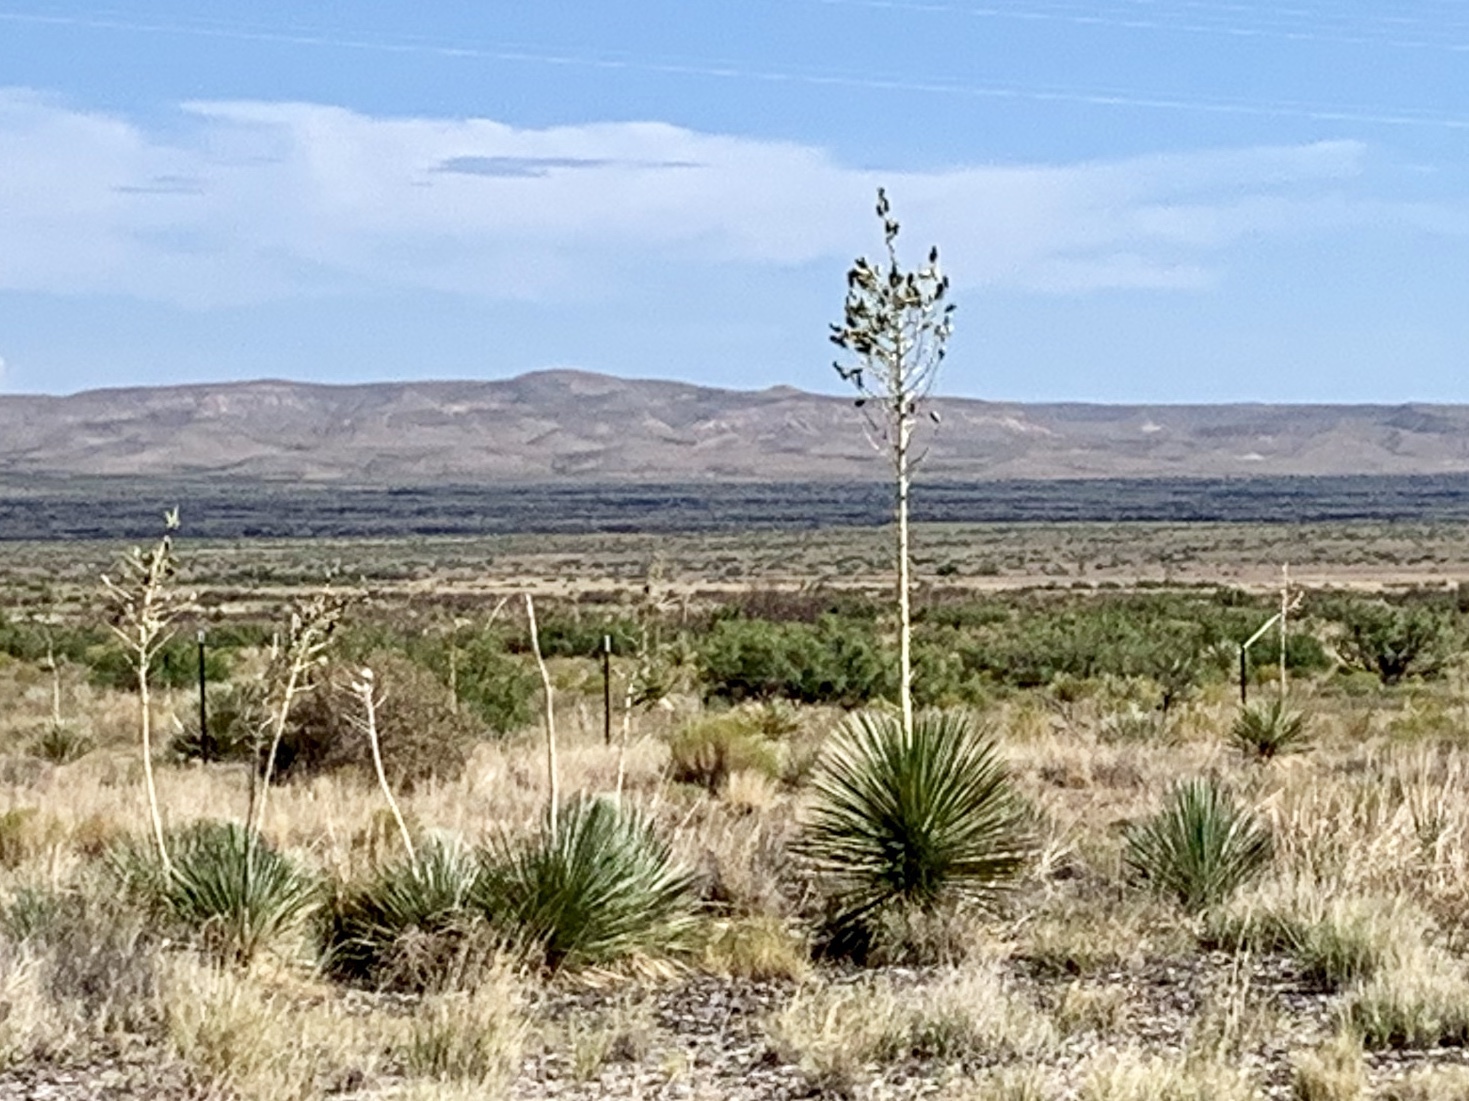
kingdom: Plantae
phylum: Tracheophyta
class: Liliopsida
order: Asparagales
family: Asparagaceae
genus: Yucca
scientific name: Yucca elata
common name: Palmella
